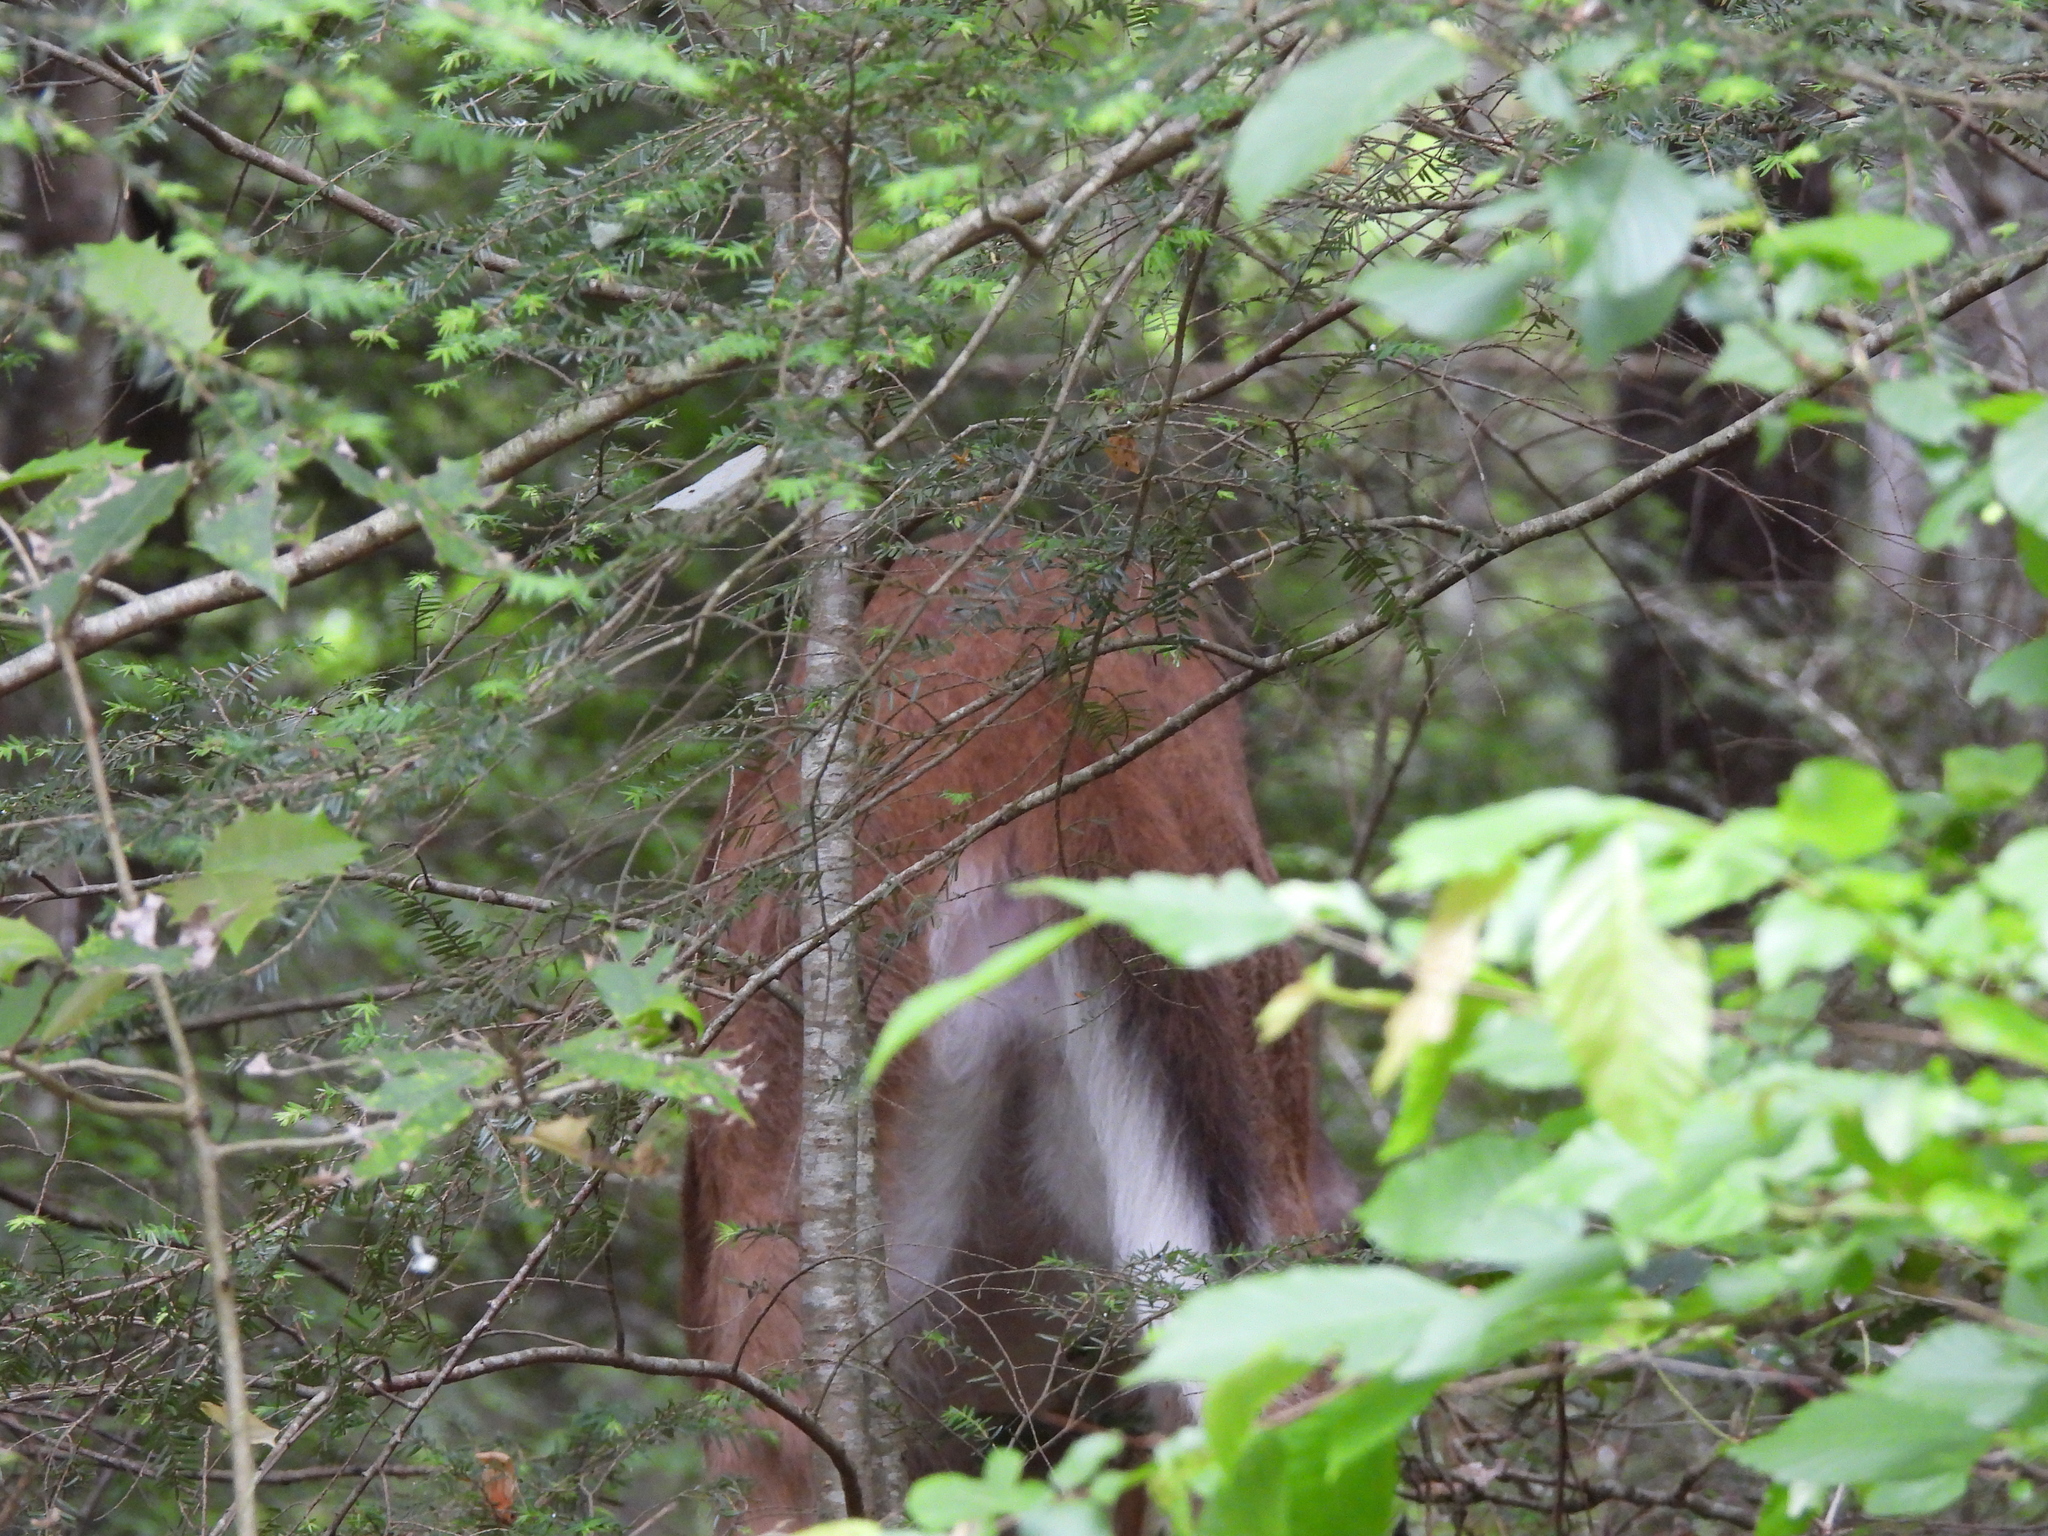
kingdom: Animalia
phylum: Chordata
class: Mammalia
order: Artiodactyla
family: Cervidae
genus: Odocoileus
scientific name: Odocoileus virginianus
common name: White-tailed deer
